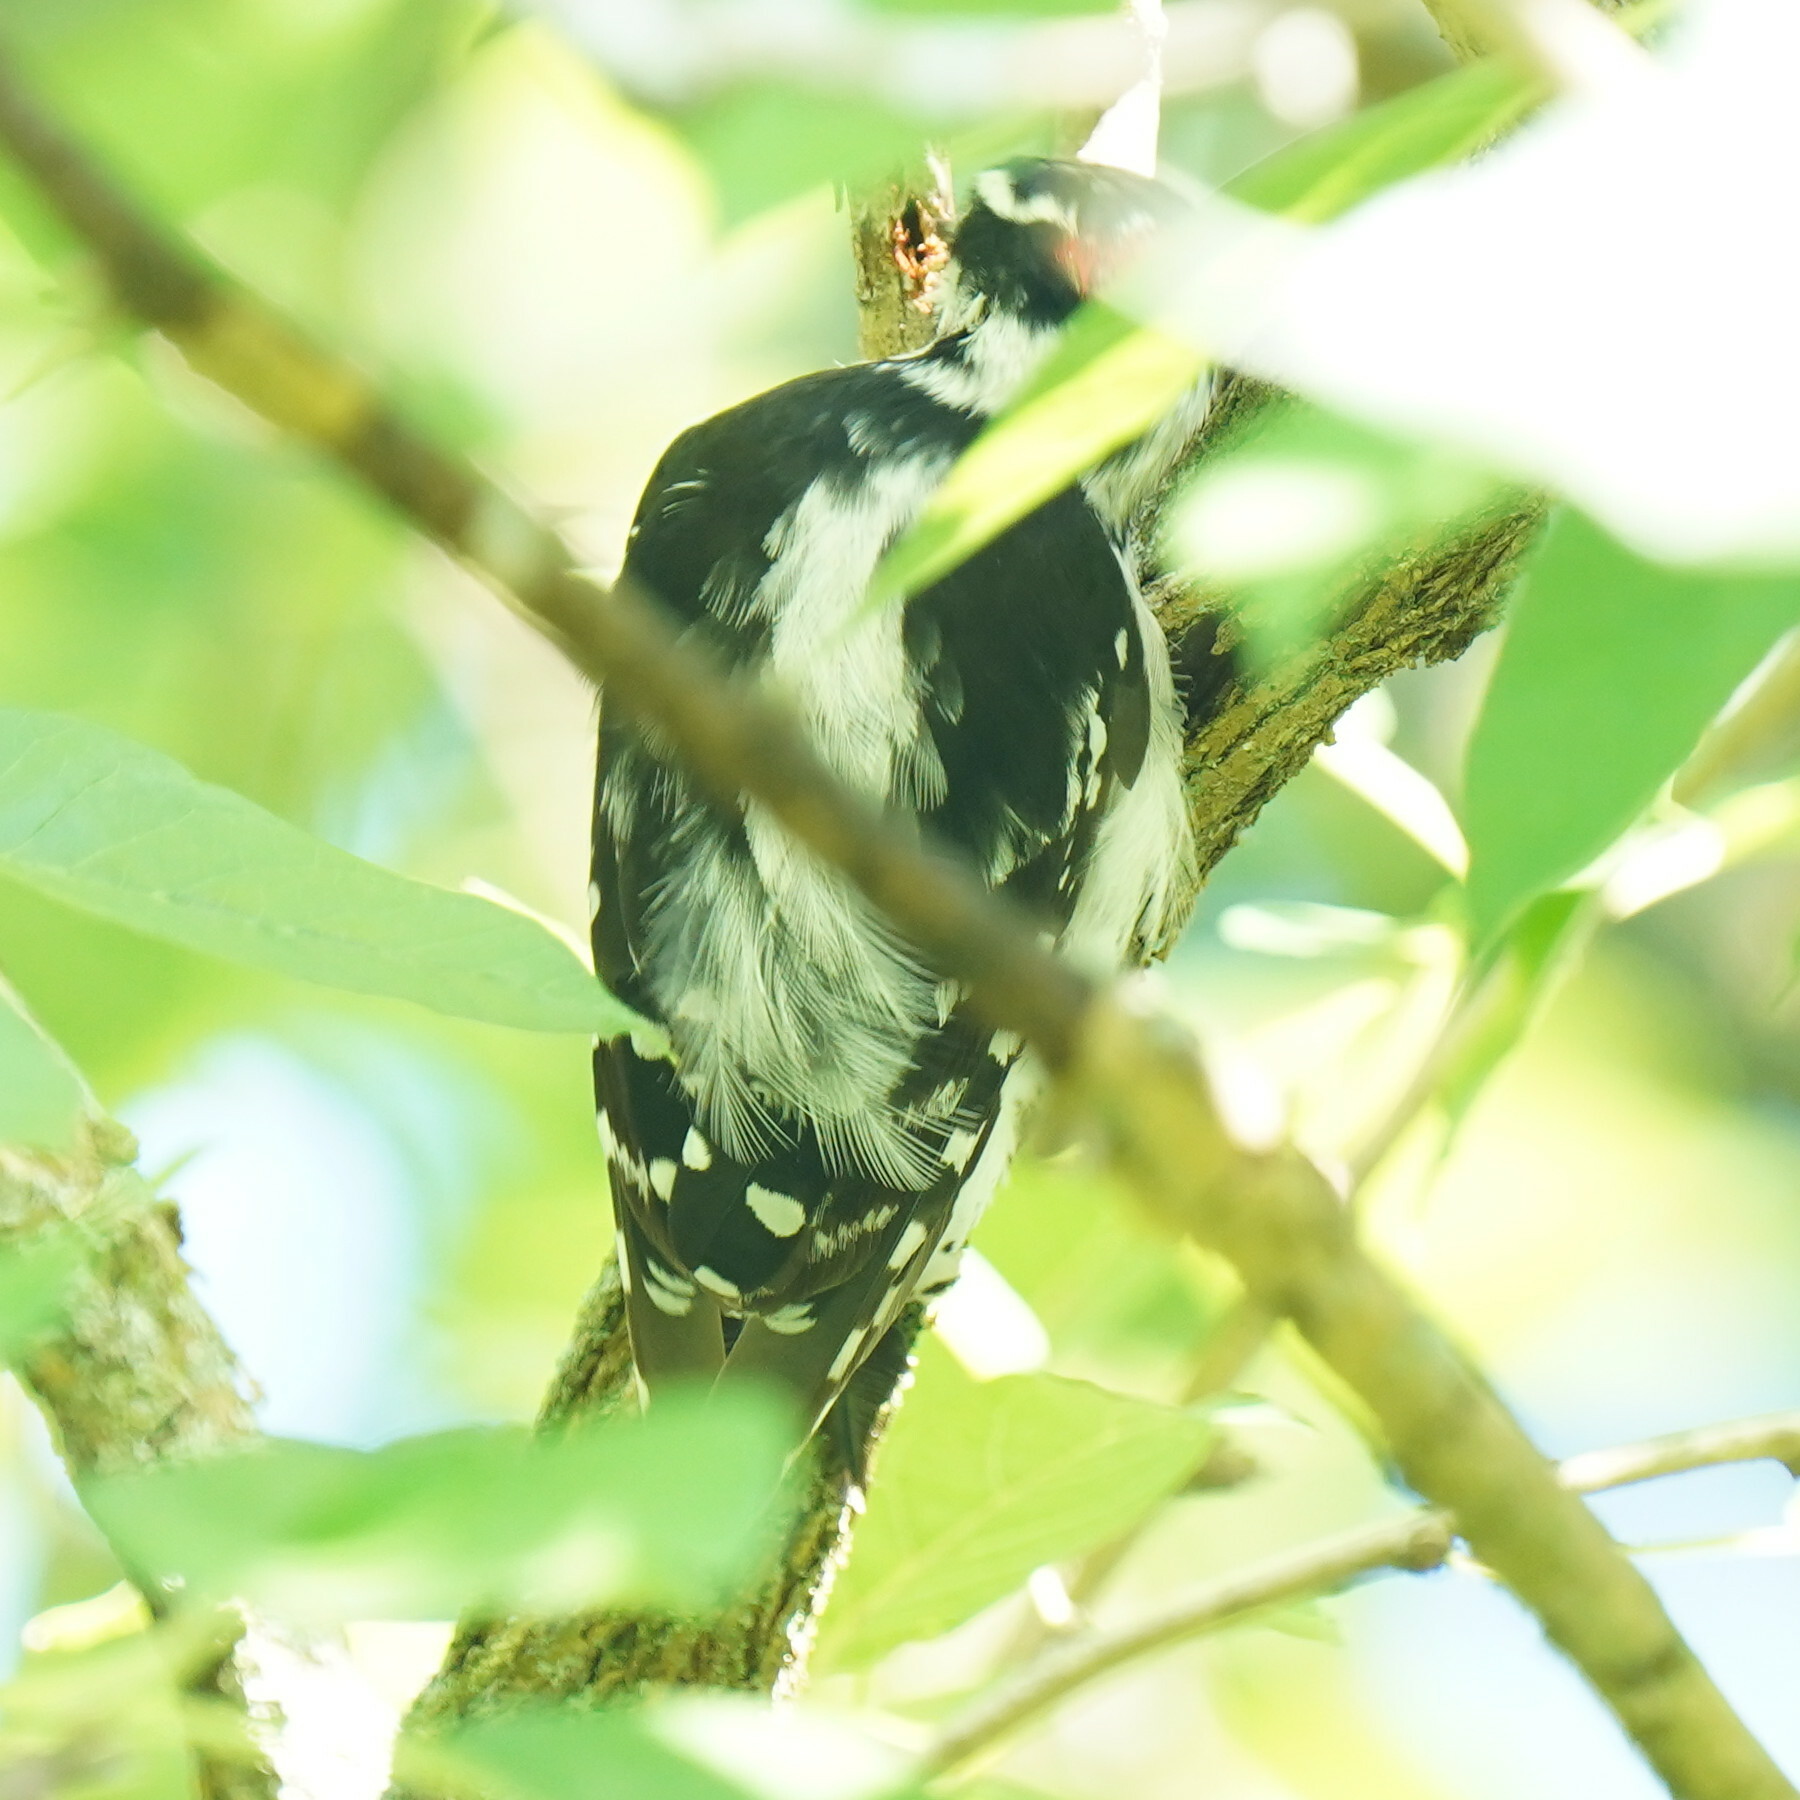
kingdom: Animalia
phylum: Chordata
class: Aves
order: Piciformes
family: Picidae
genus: Dryobates
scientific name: Dryobates pubescens
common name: Downy woodpecker
